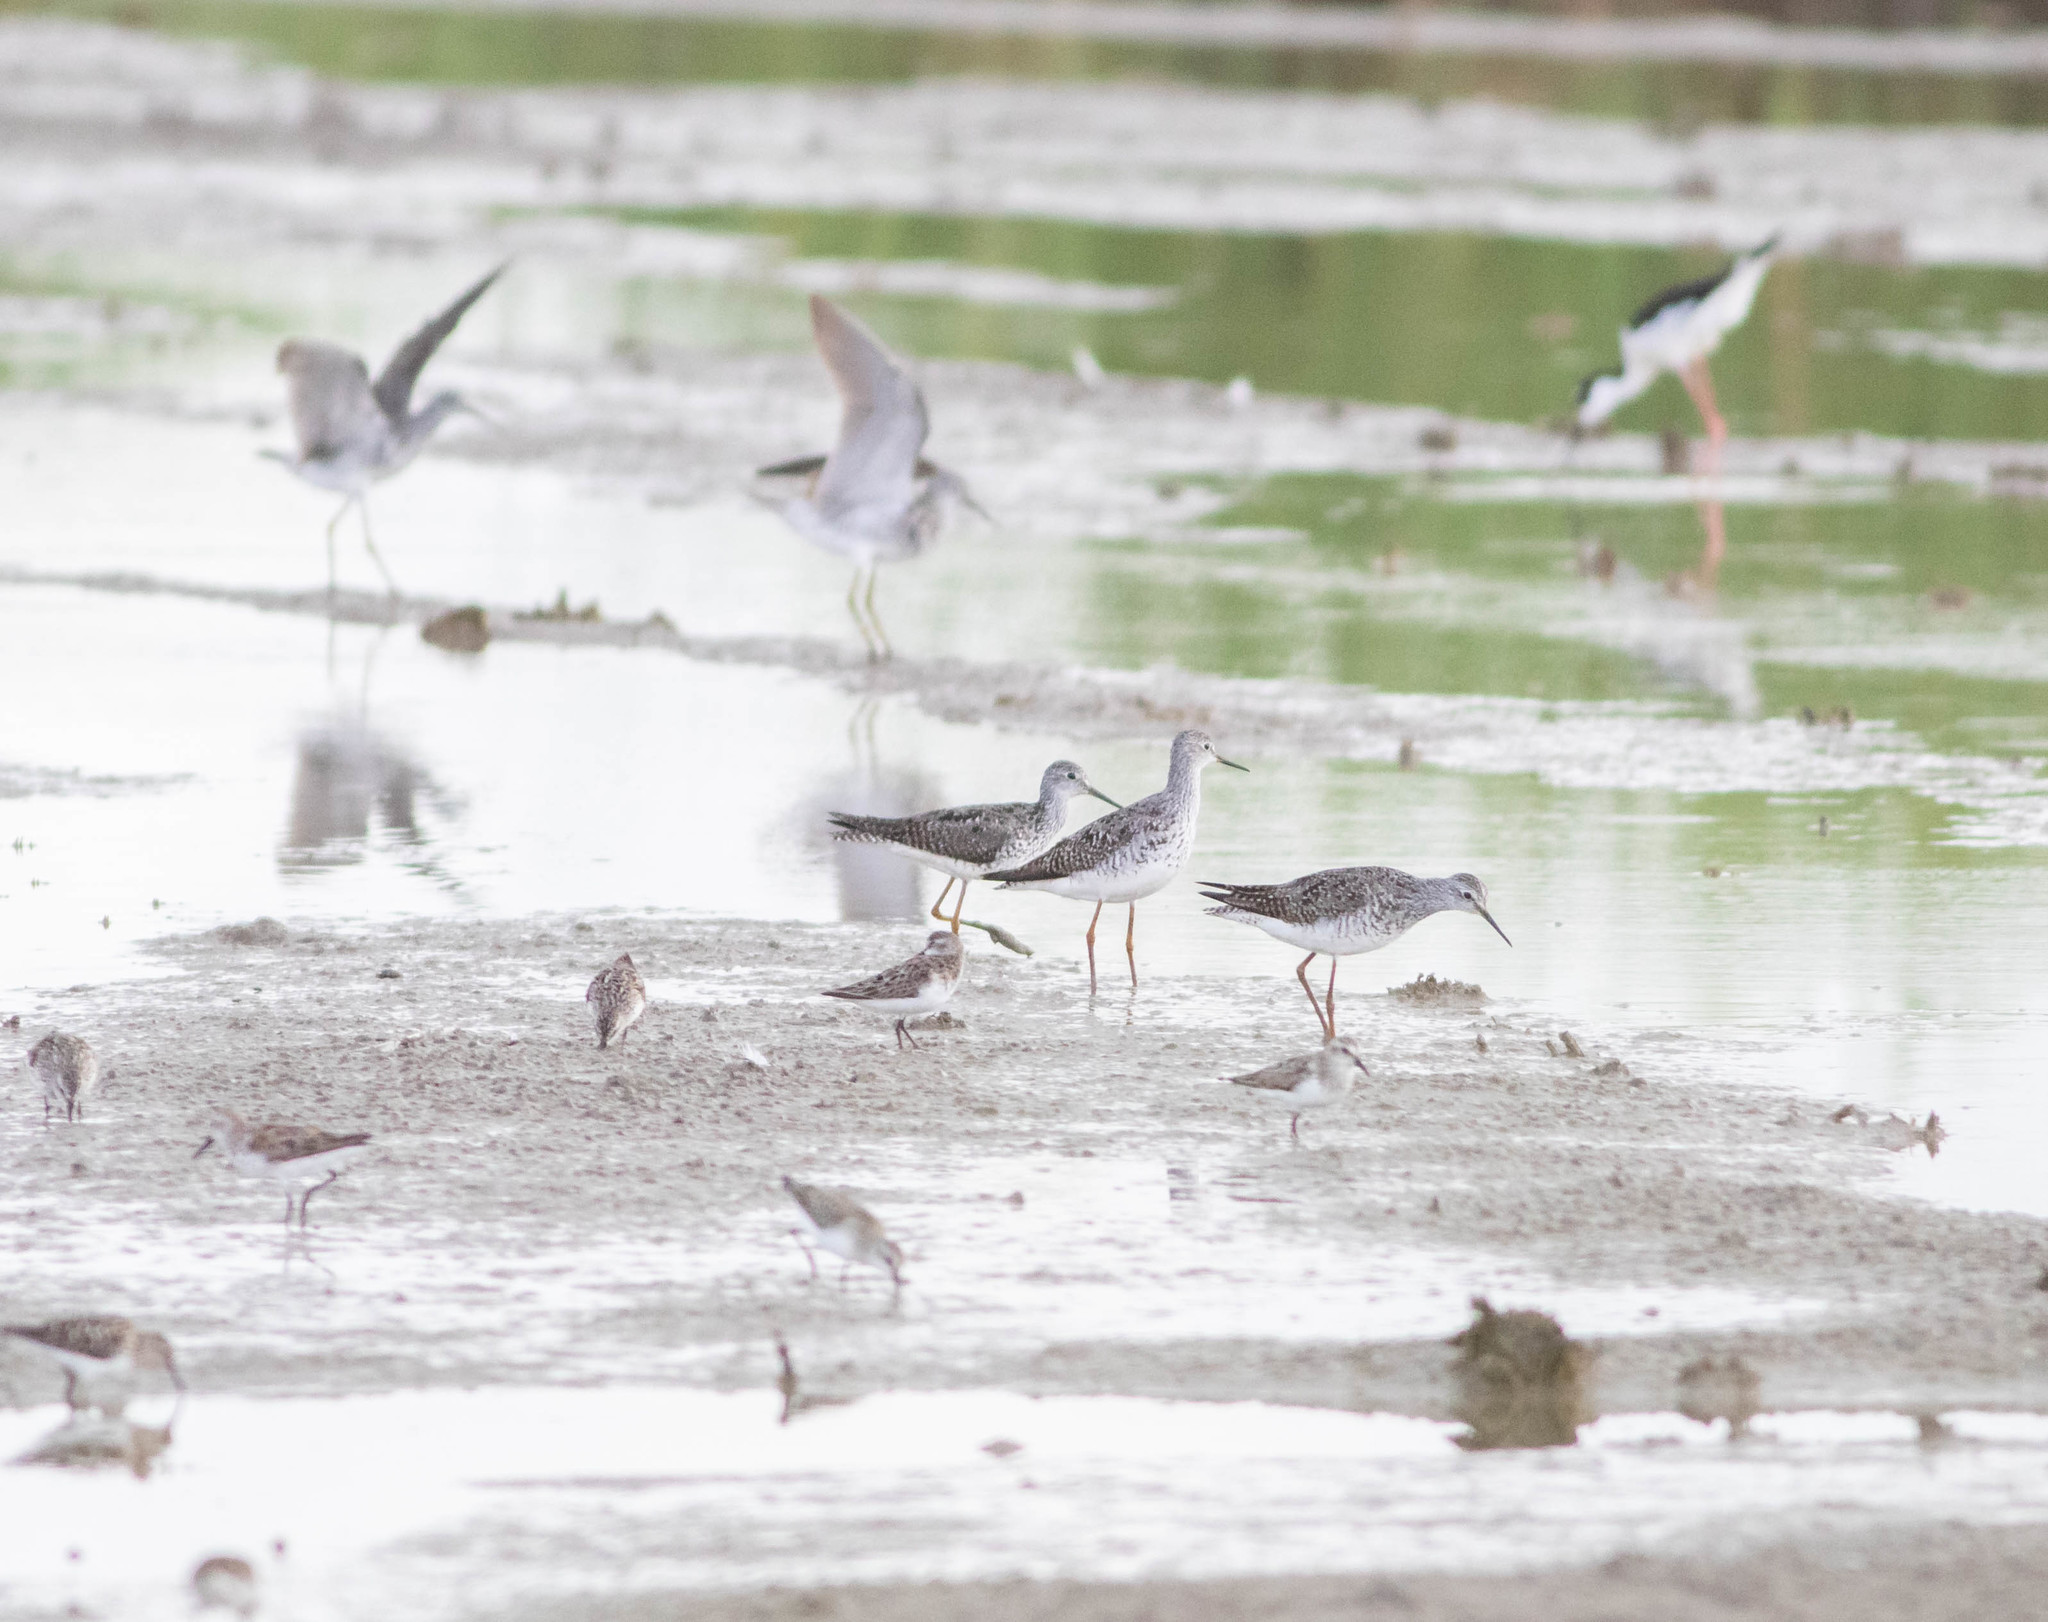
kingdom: Animalia
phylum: Chordata
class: Aves
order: Charadriiformes
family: Scolopacidae
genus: Tringa
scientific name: Tringa flavipes
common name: Lesser yellowlegs
